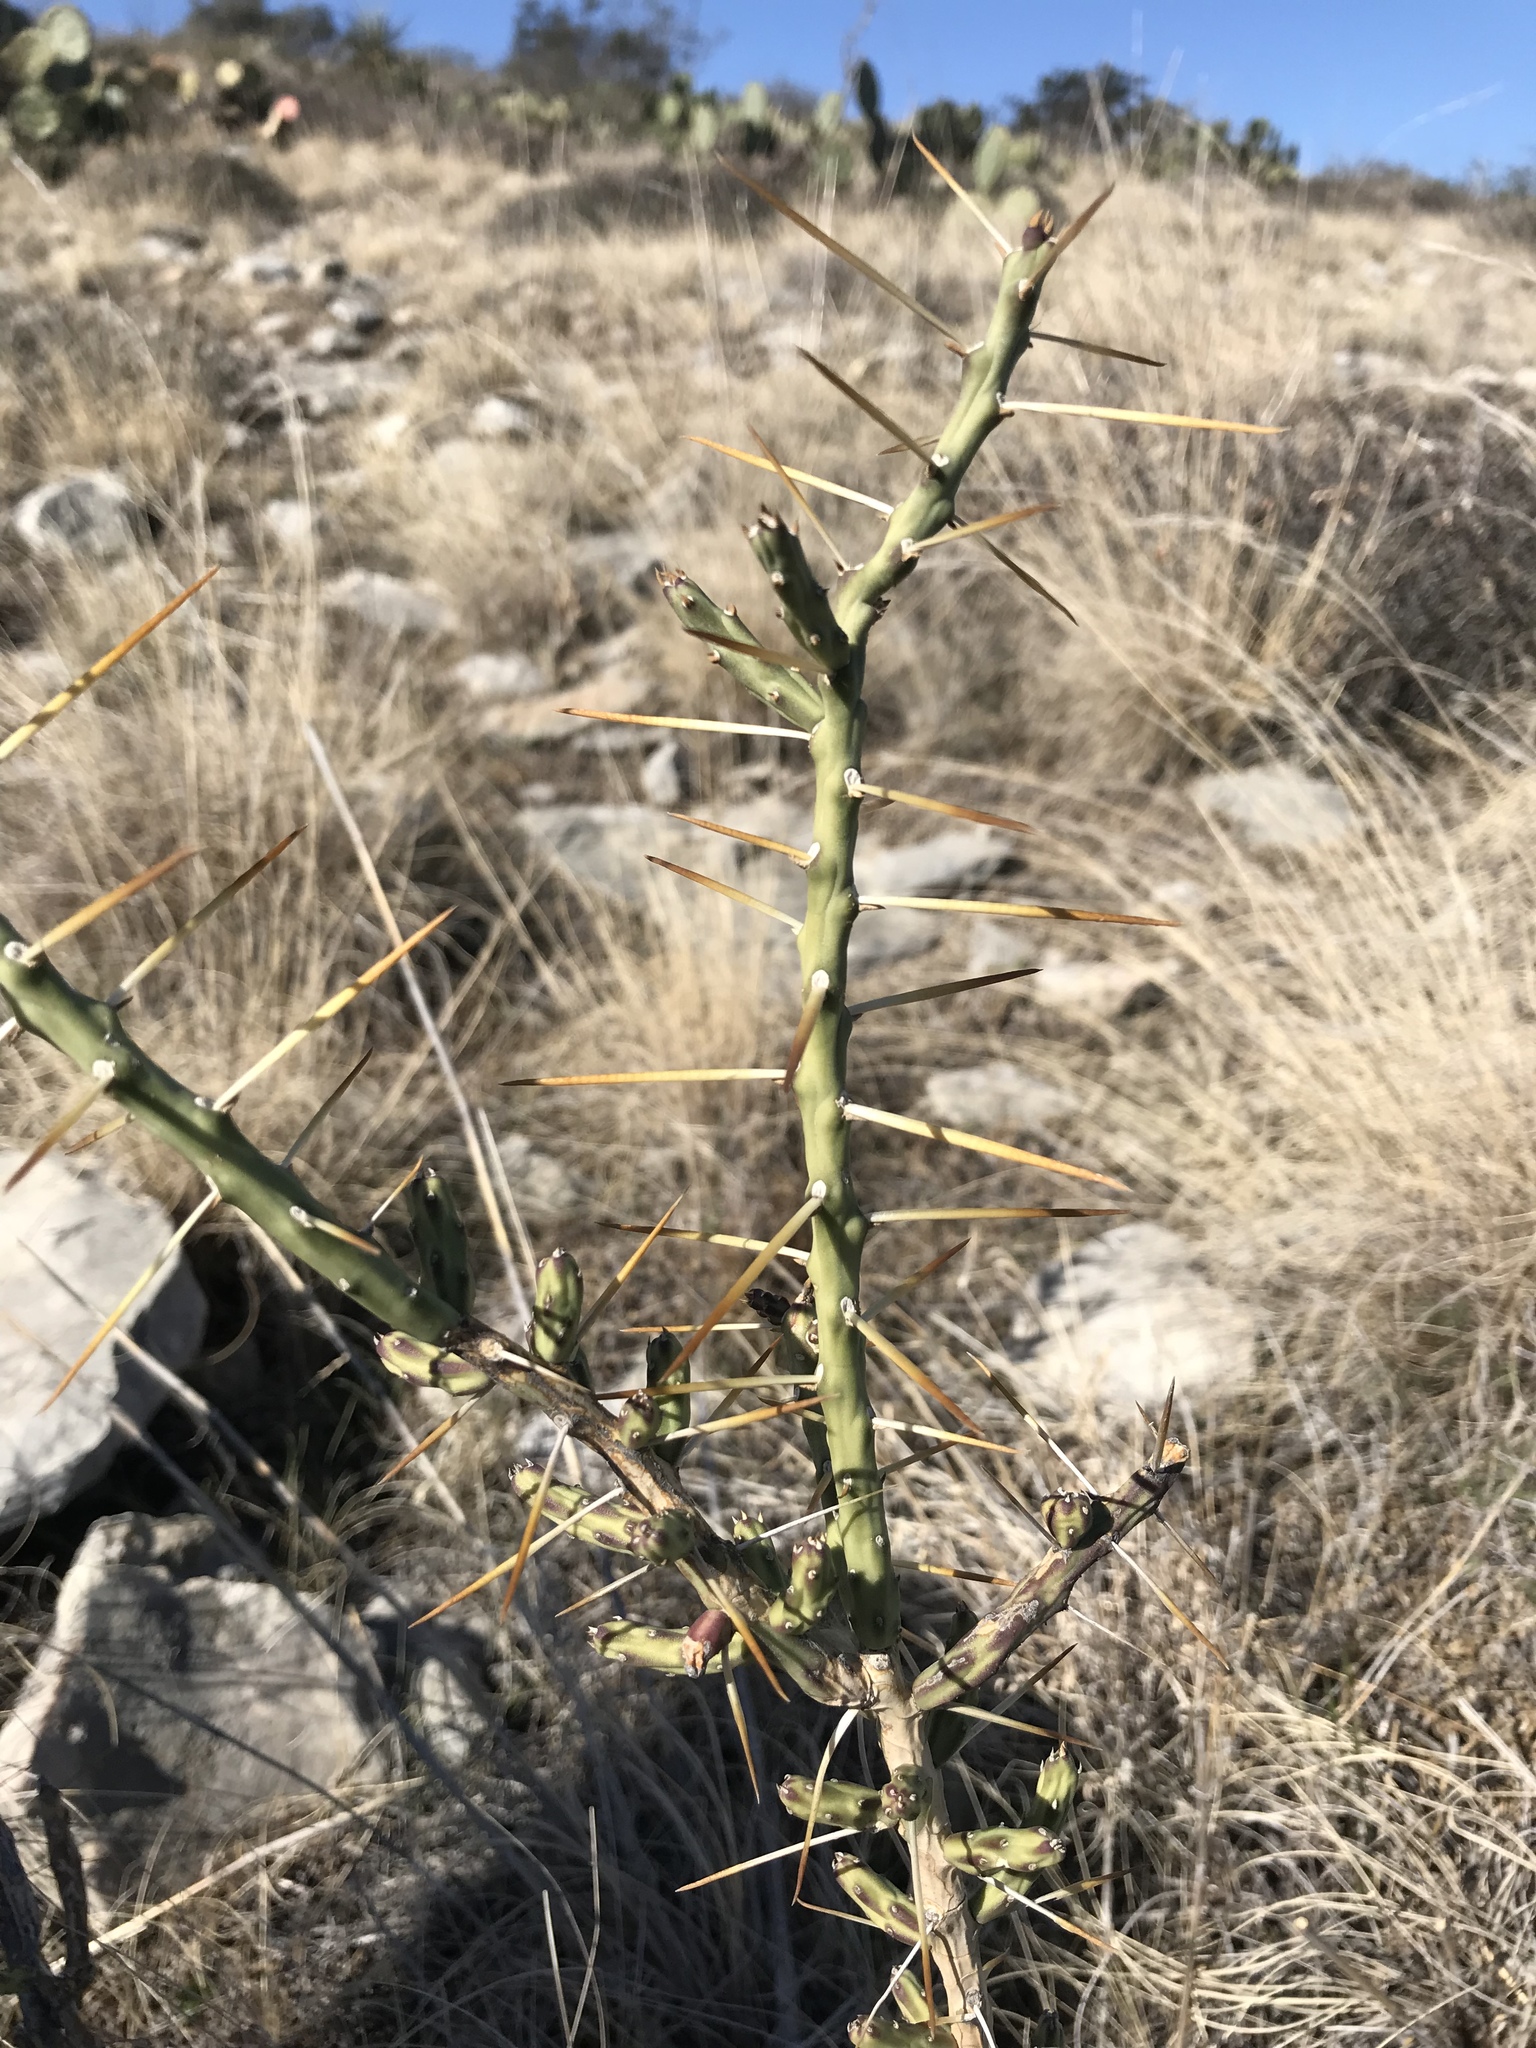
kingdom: Plantae
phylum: Tracheophyta
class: Magnoliopsida
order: Caryophyllales
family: Cactaceae
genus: Cylindropuntia
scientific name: Cylindropuntia leptocaulis
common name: Christmas cactus
